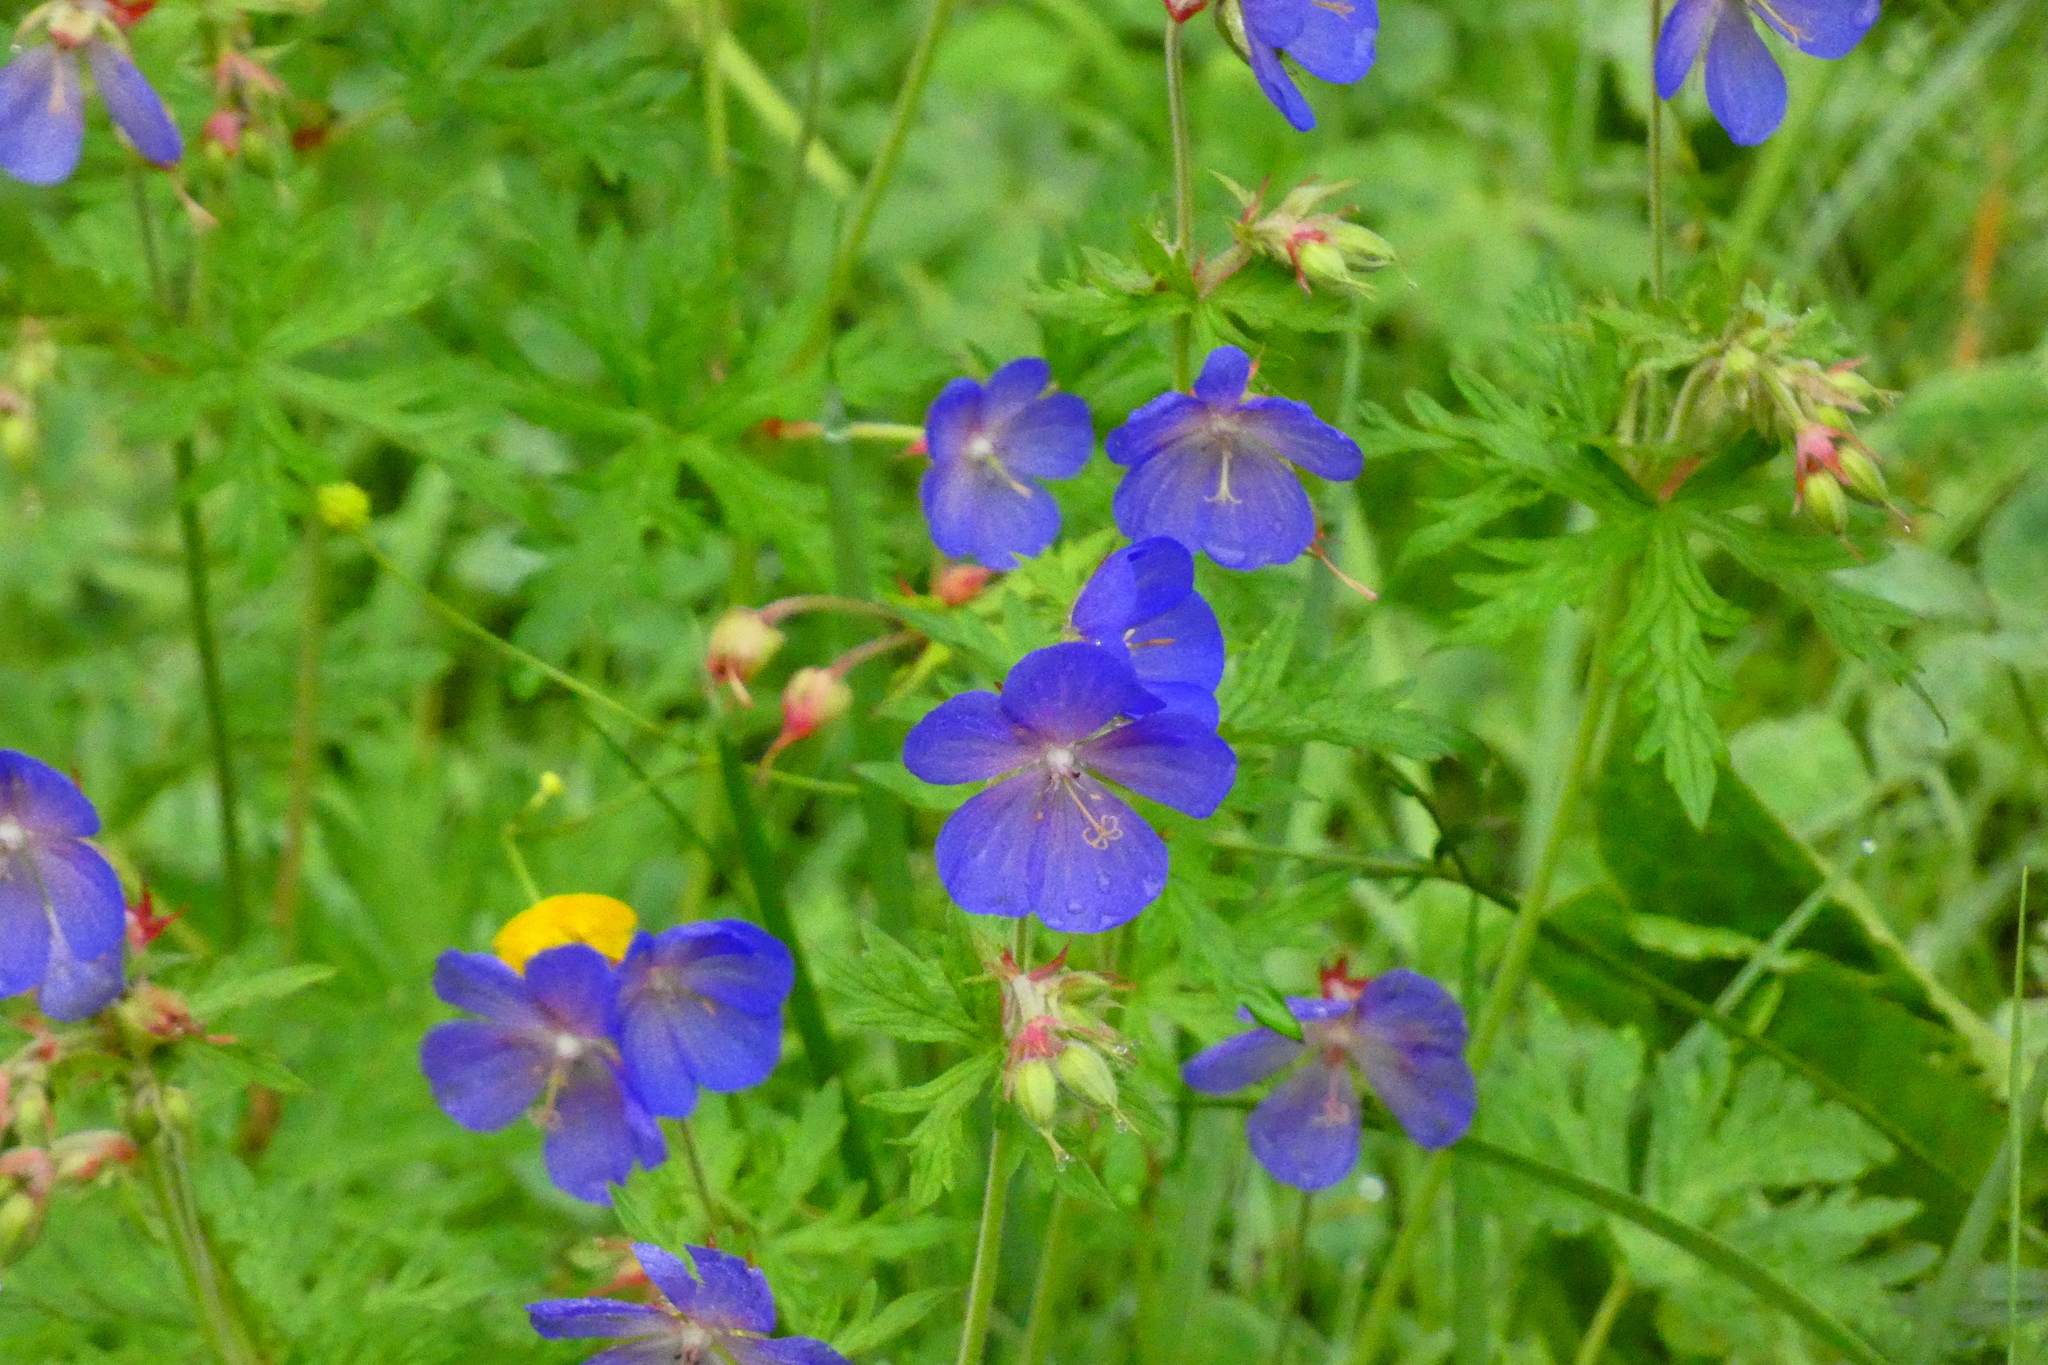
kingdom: Plantae
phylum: Tracheophyta
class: Magnoliopsida
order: Geraniales
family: Geraniaceae
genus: Geranium
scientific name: Geranium pratense
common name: Meadow crane's-bill
